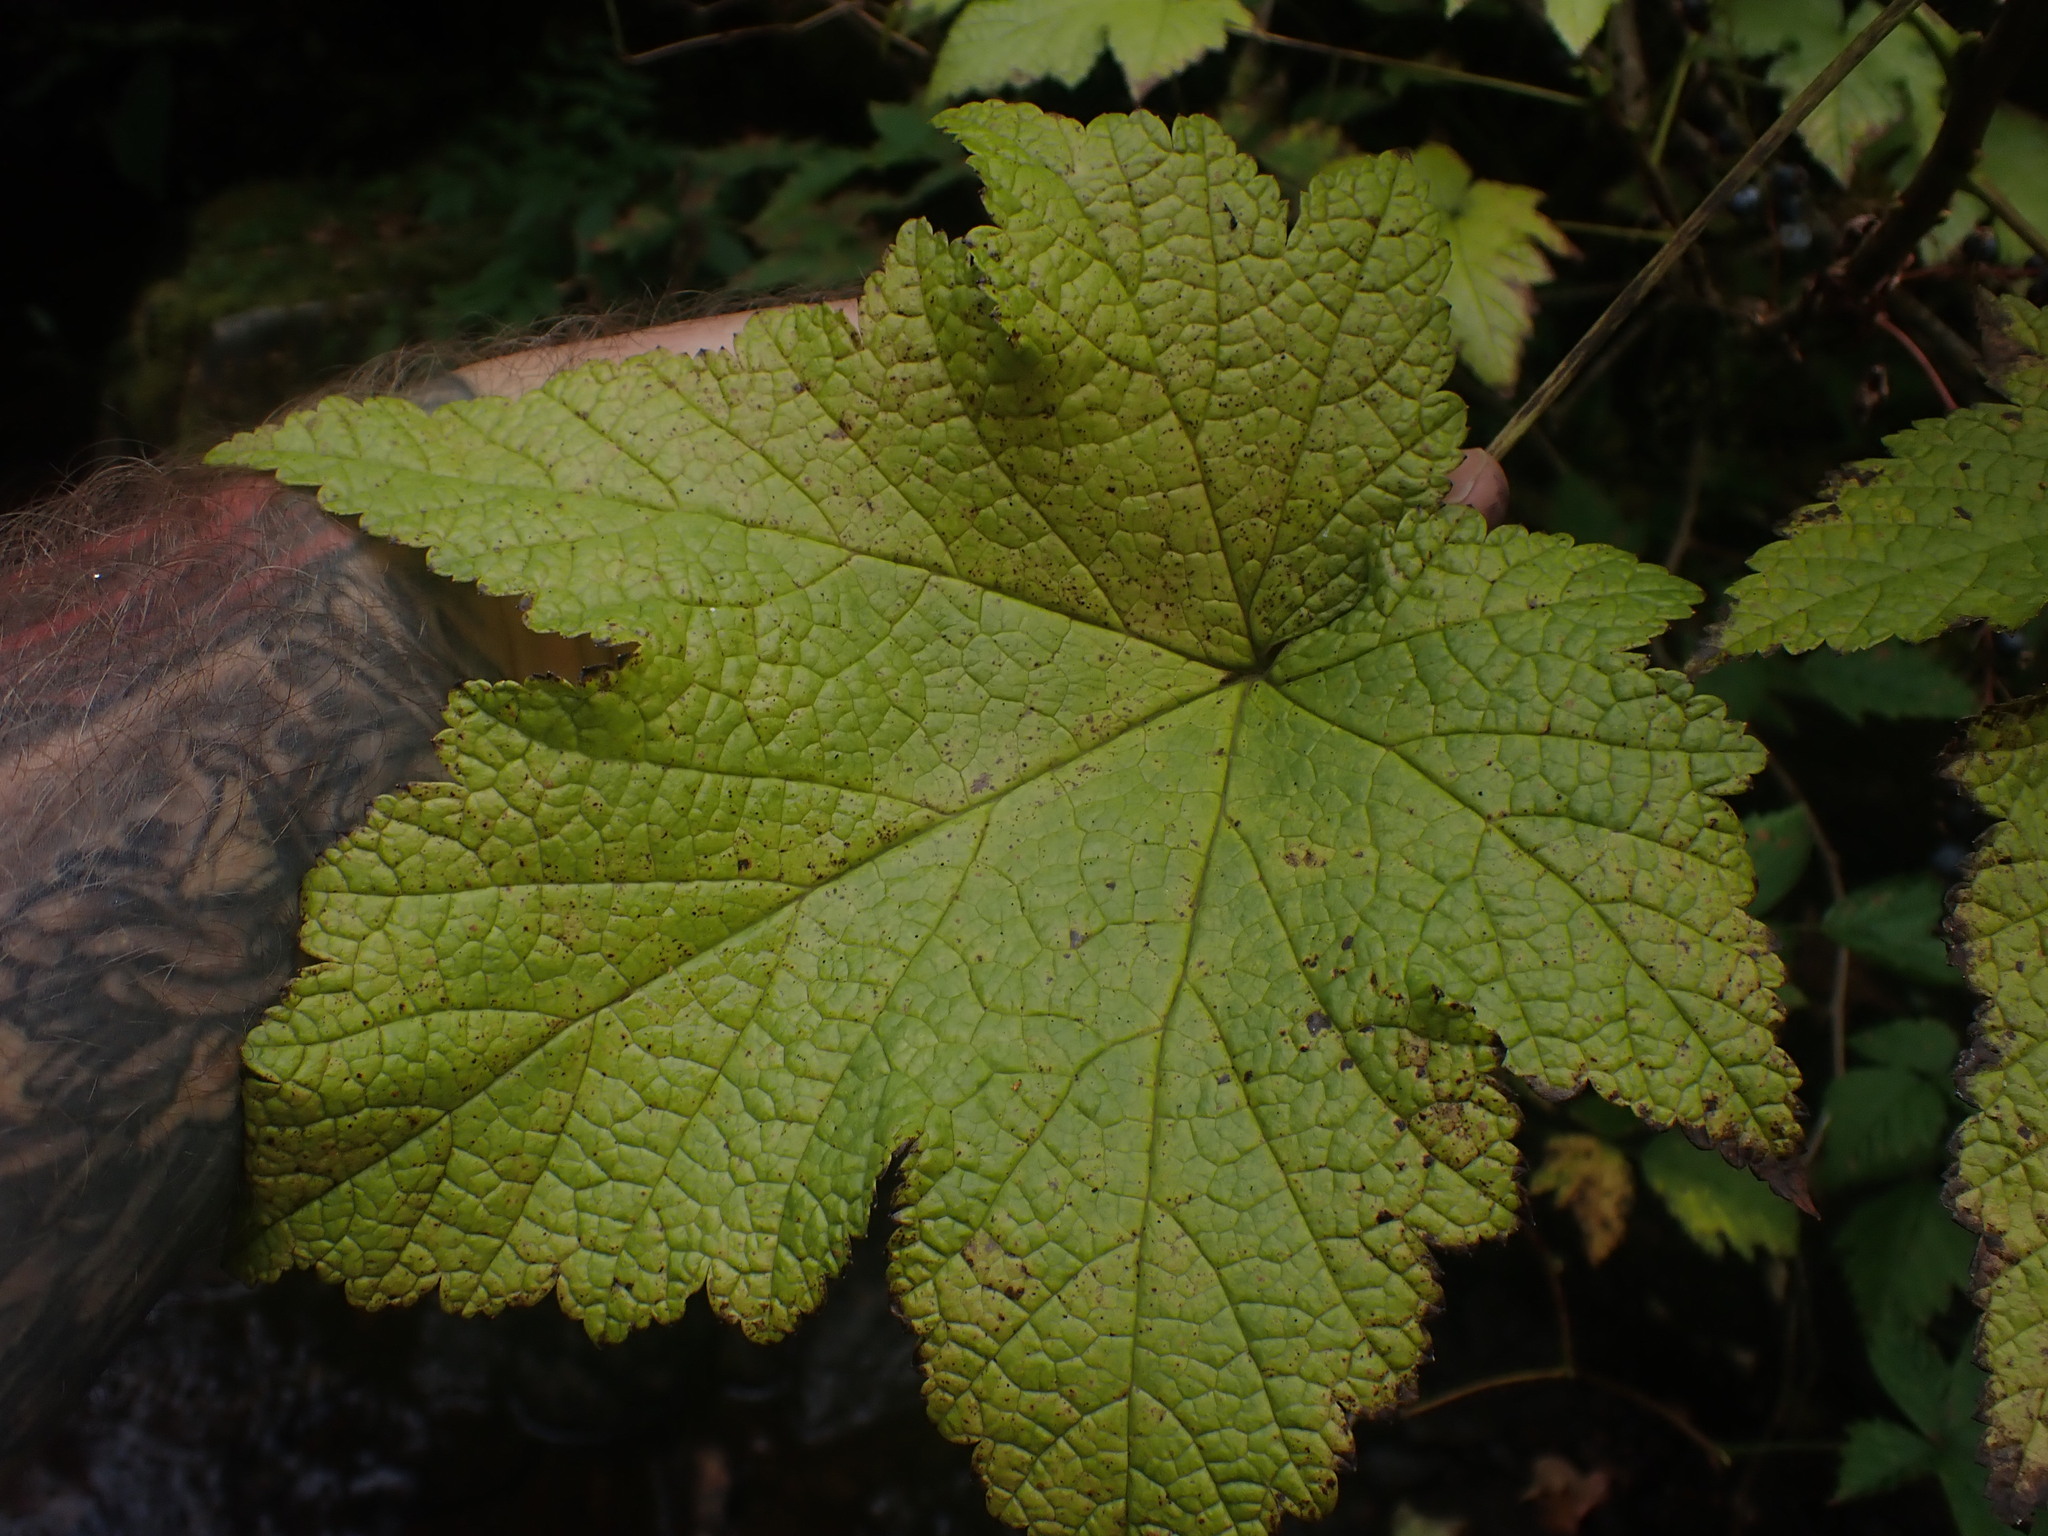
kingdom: Plantae
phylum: Tracheophyta
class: Magnoliopsida
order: Saxifragales
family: Grossulariaceae
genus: Ribes
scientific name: Ribes bracteosum
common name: California black currant
